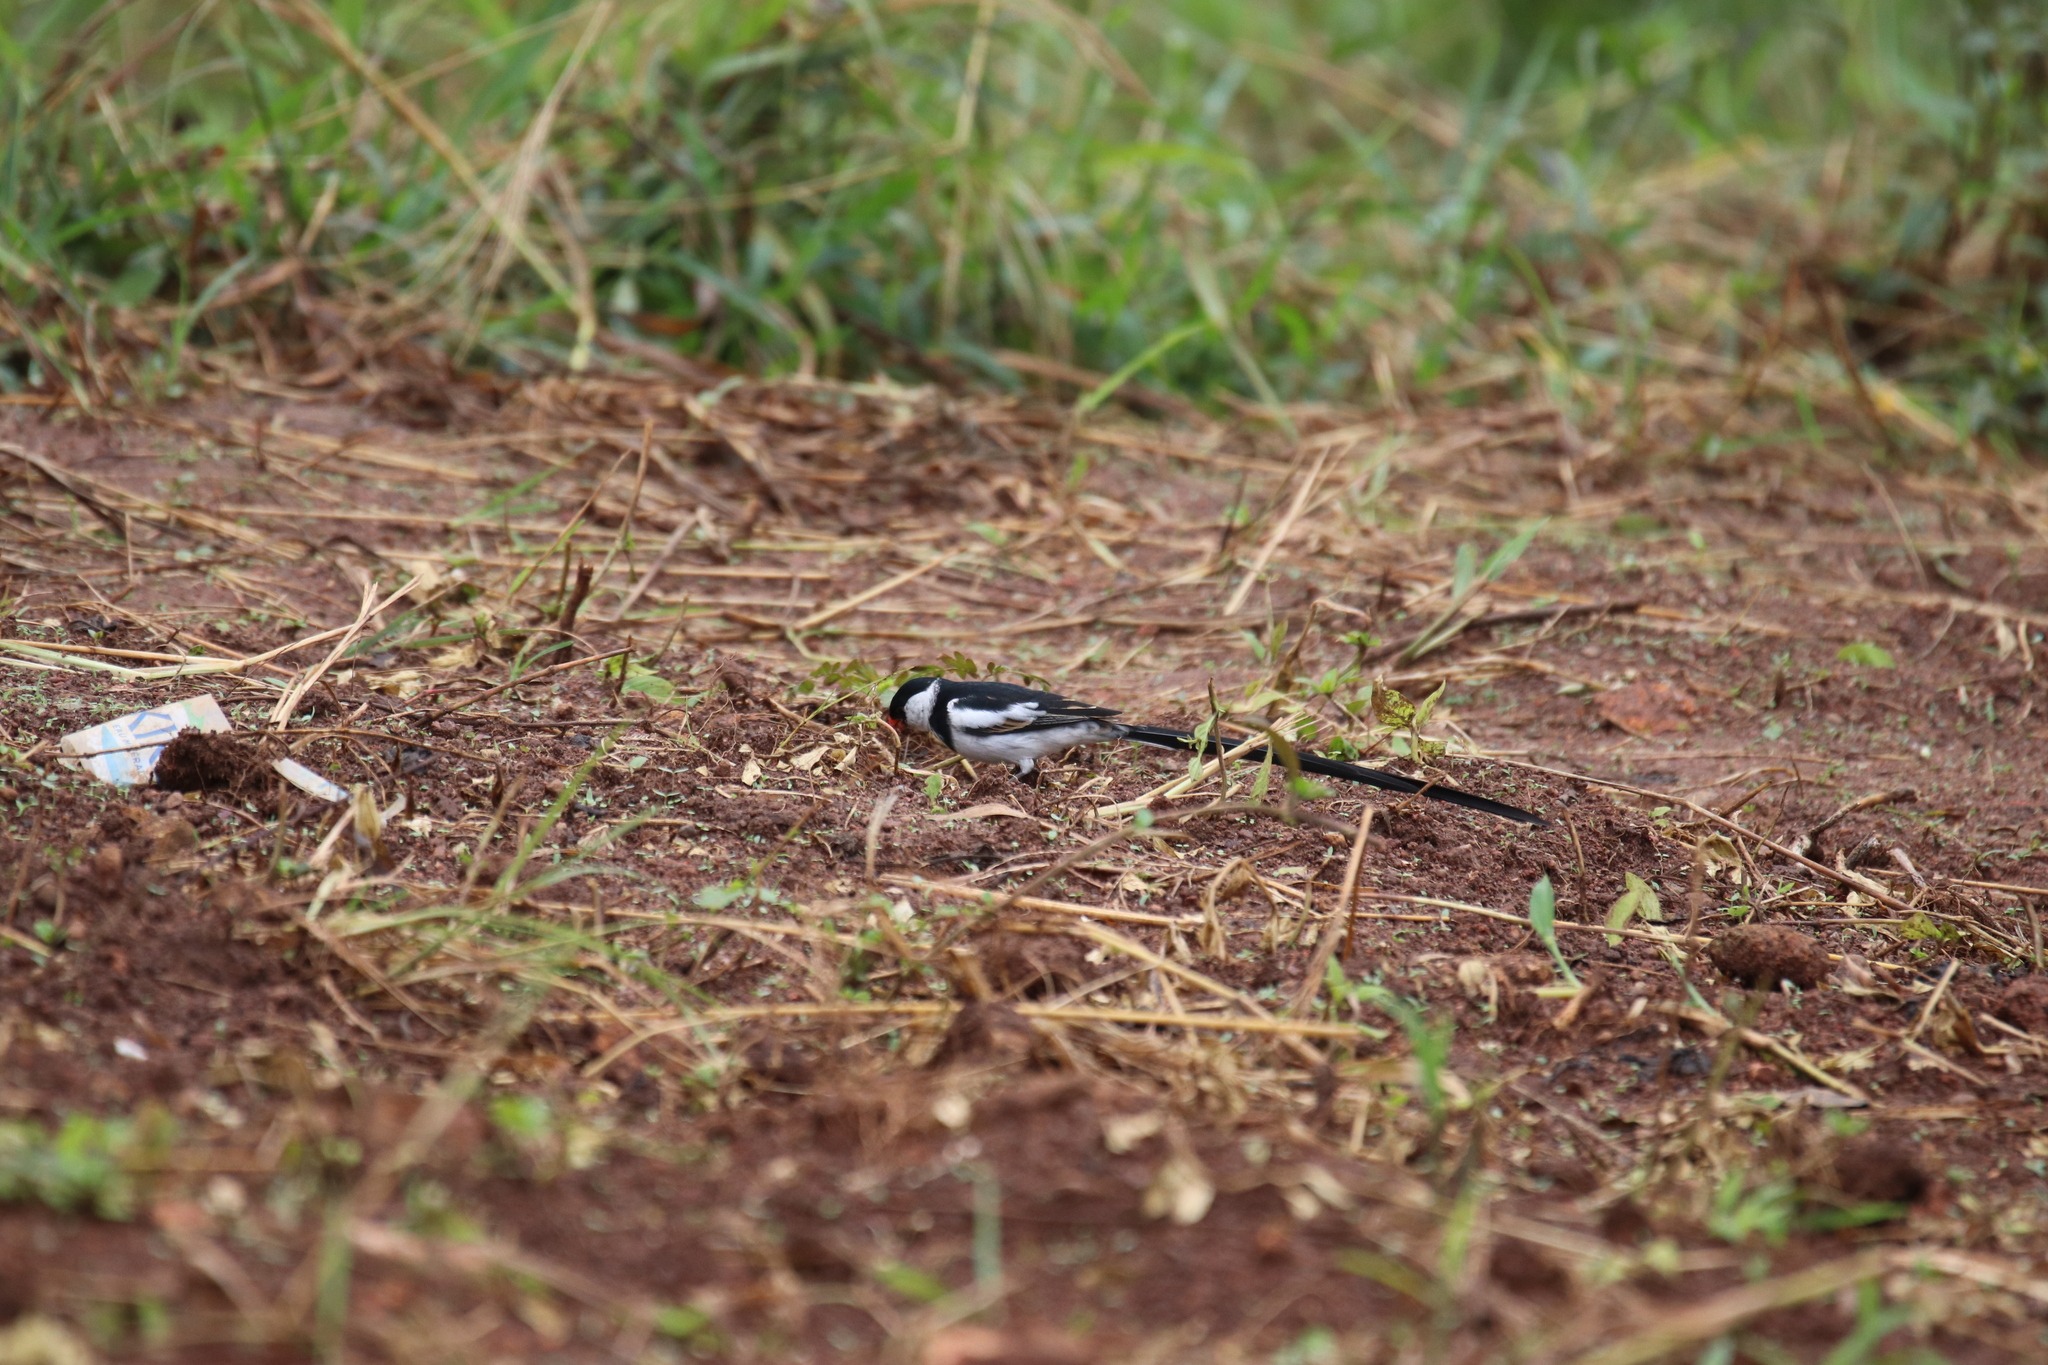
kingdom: Animalia
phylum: Chordata
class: Aves
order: Passeriformes
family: Viduidae
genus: Vidua
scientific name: Vidua macroura
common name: Pin-tailed whydah
